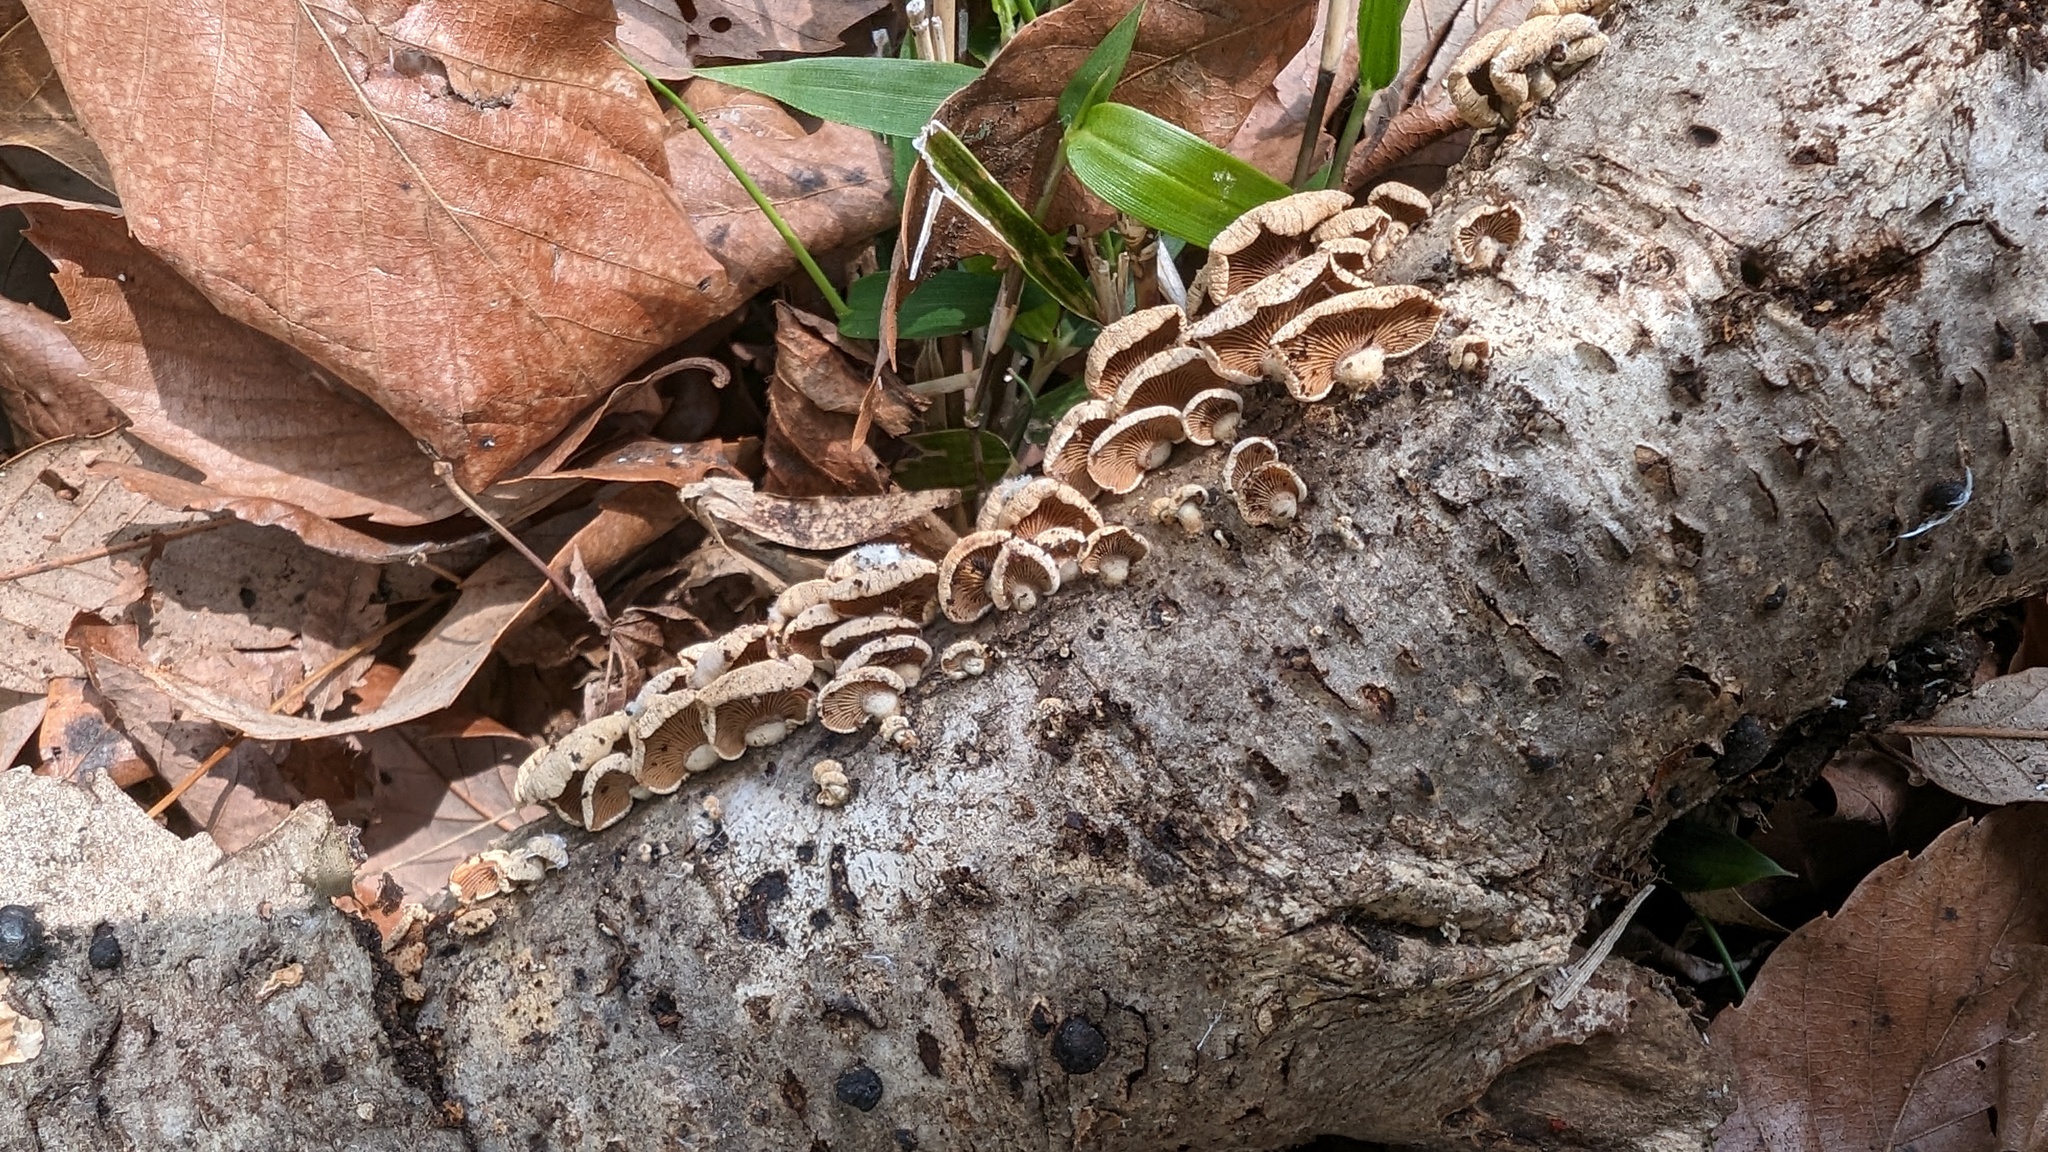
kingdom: Fungi
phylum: Basidiomycota
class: Agaricomycetes
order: Agaricales
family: Mycenaceae
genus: Panellus
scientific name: Panellus stipticus
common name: Bitter oysterling
